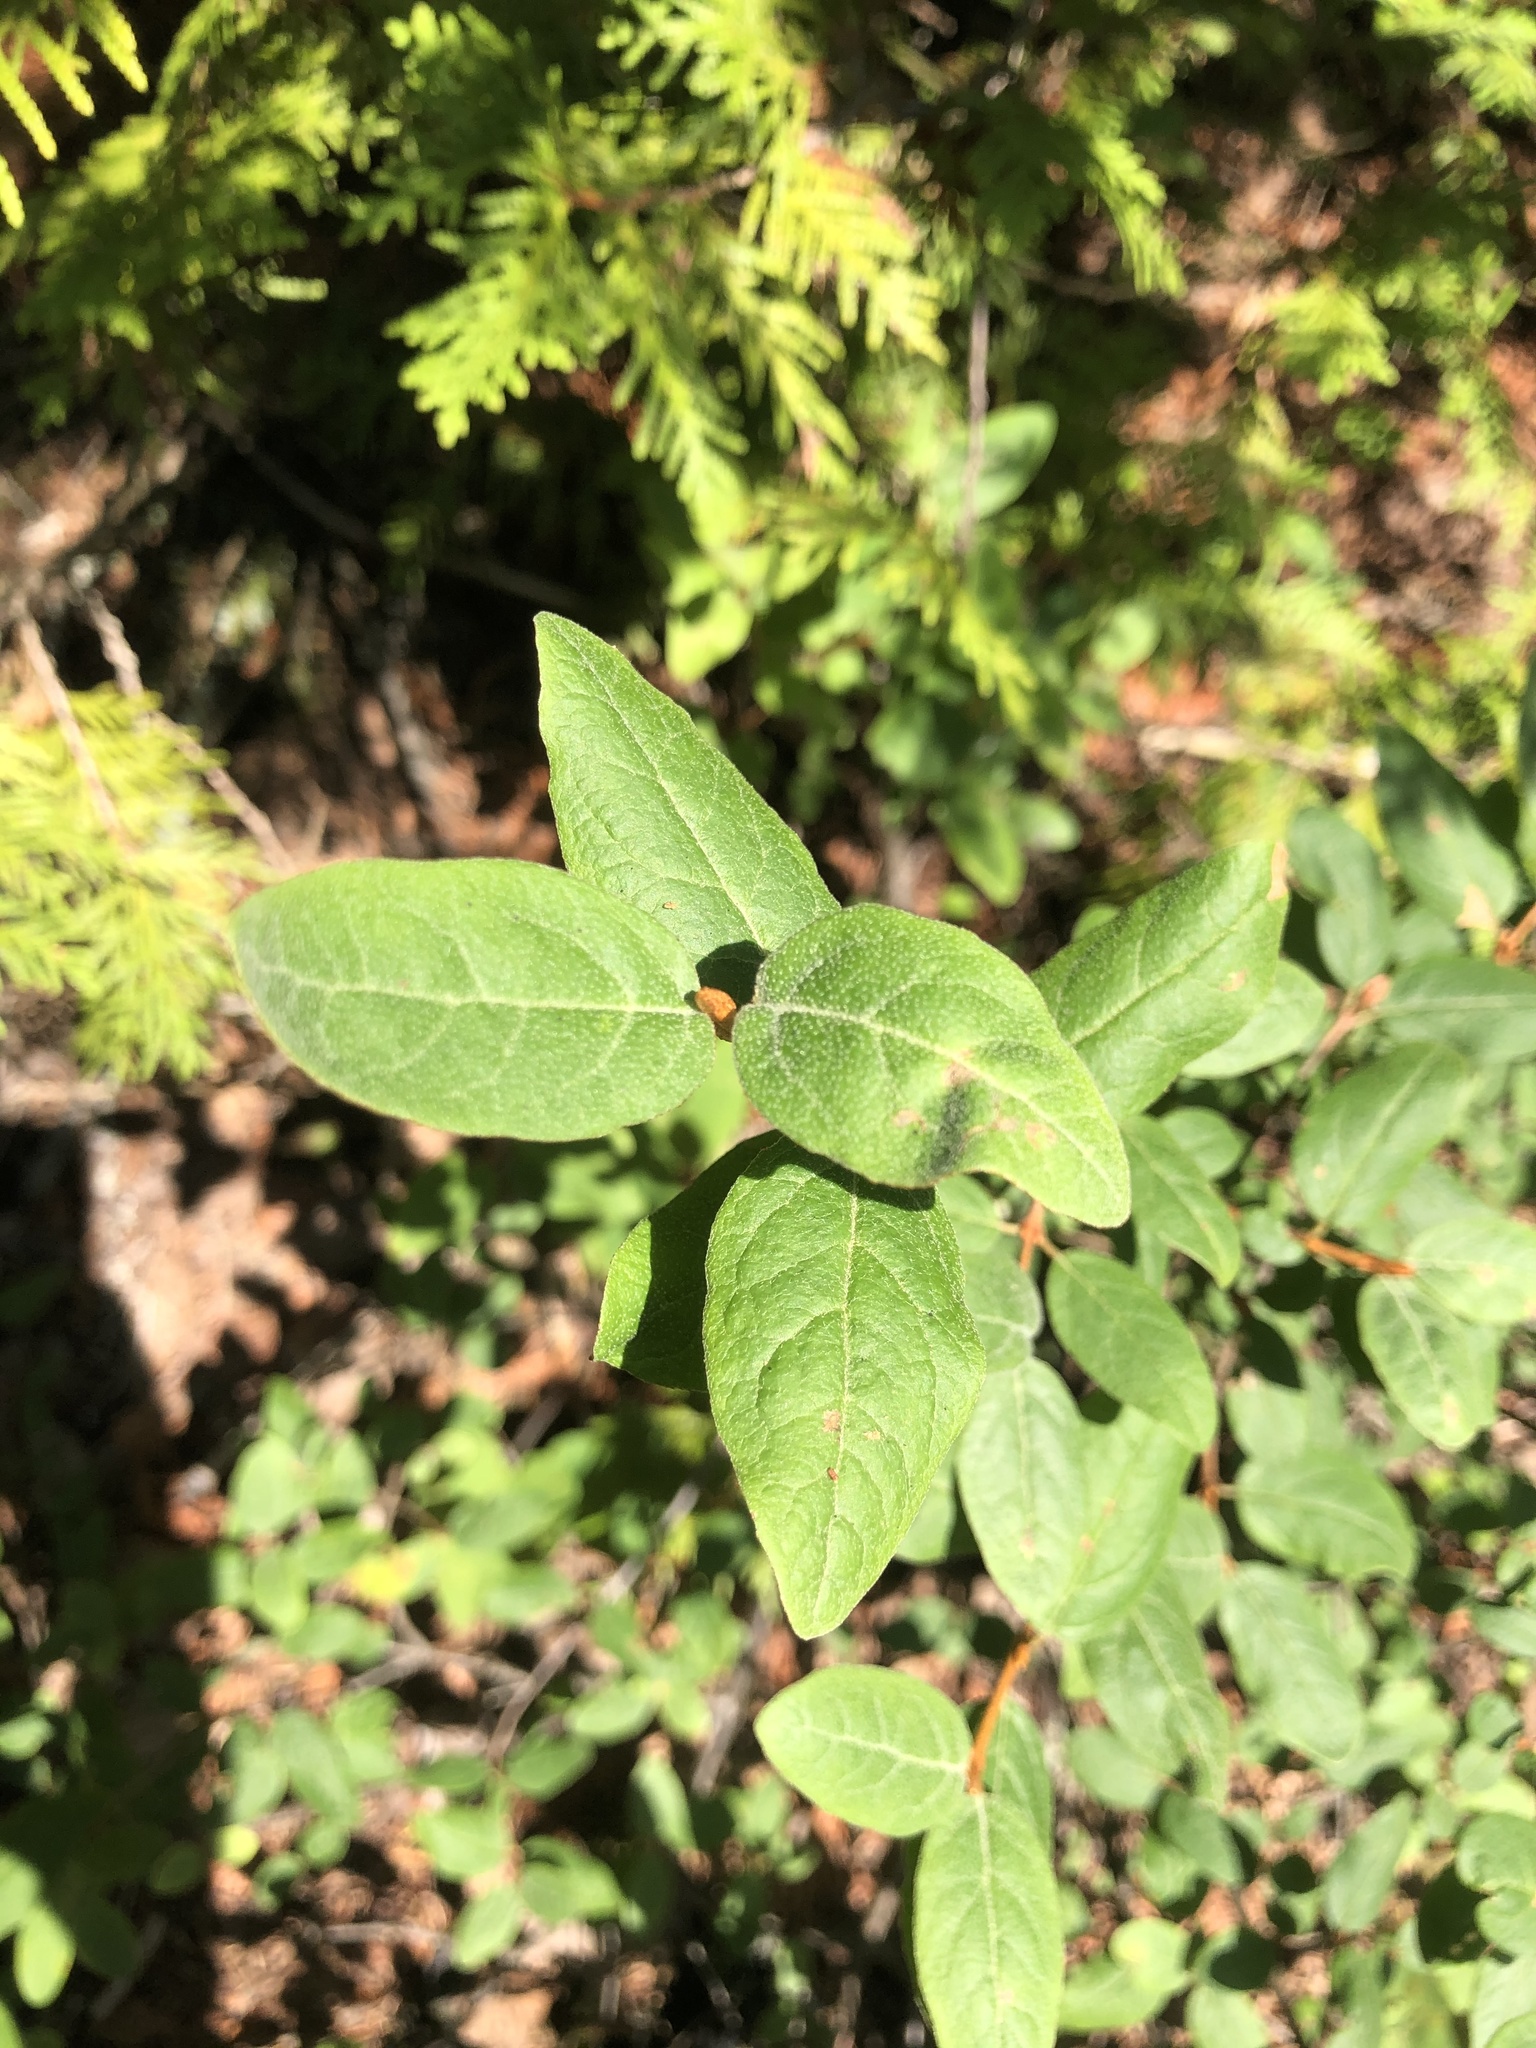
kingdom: Plantae
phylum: Tracheophyta
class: Magnoliopsida
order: Rosales
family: Elaeagnaceae
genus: Shepherdia
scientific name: Shepherdia canadensis
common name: Soapberry
